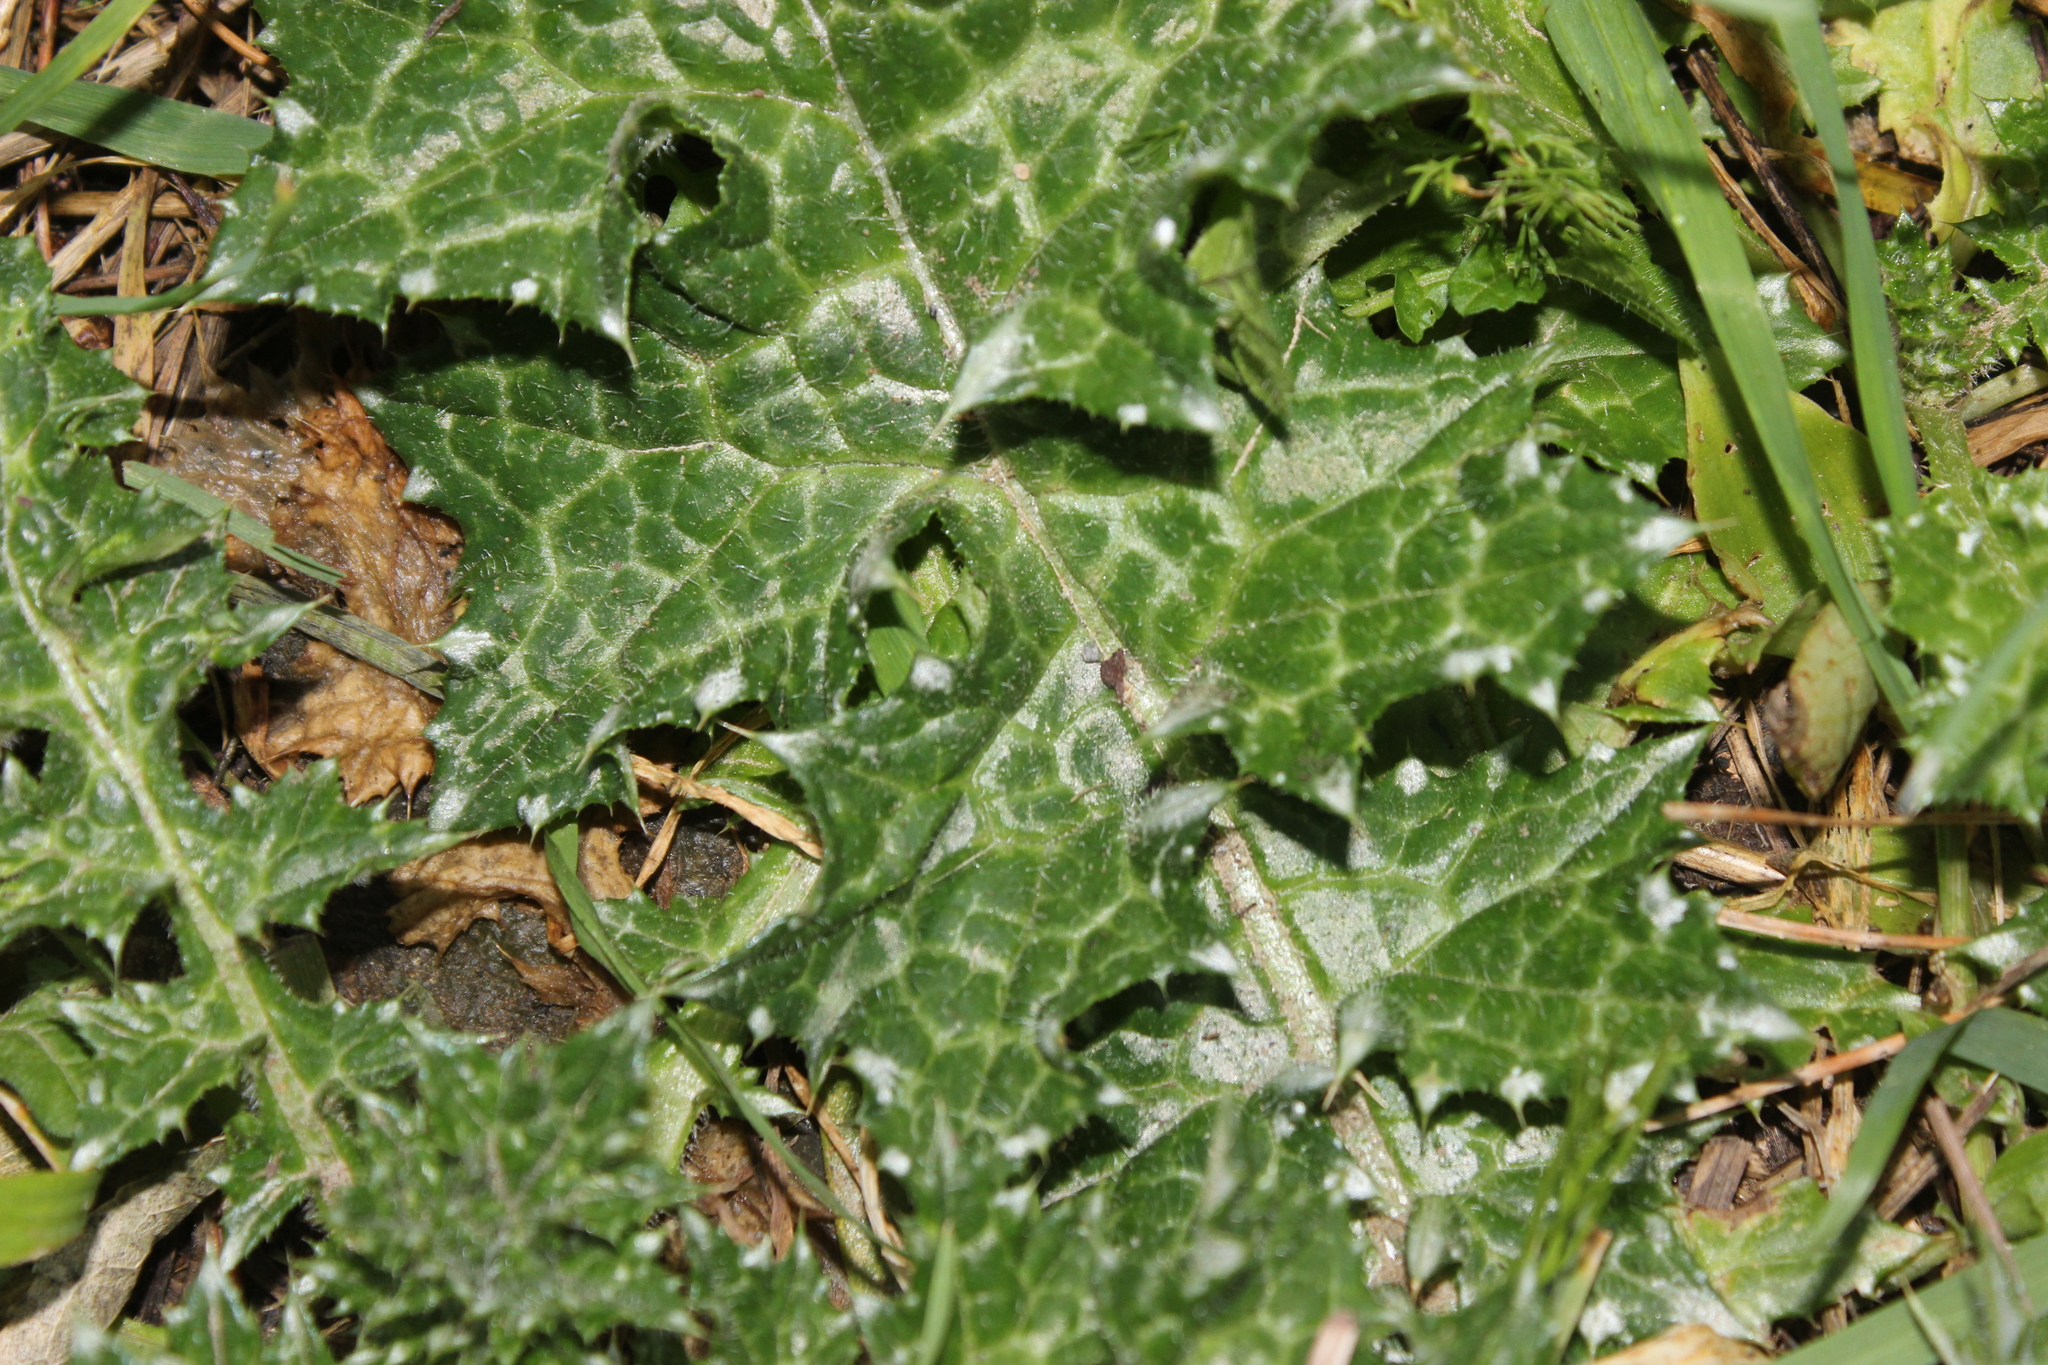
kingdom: Plantae
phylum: Tracheophyta
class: Magnoliopsida
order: Asterales
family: Asteraceae
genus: Carduus
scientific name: Carduus pycnocephalus
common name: Plymouth thistle
